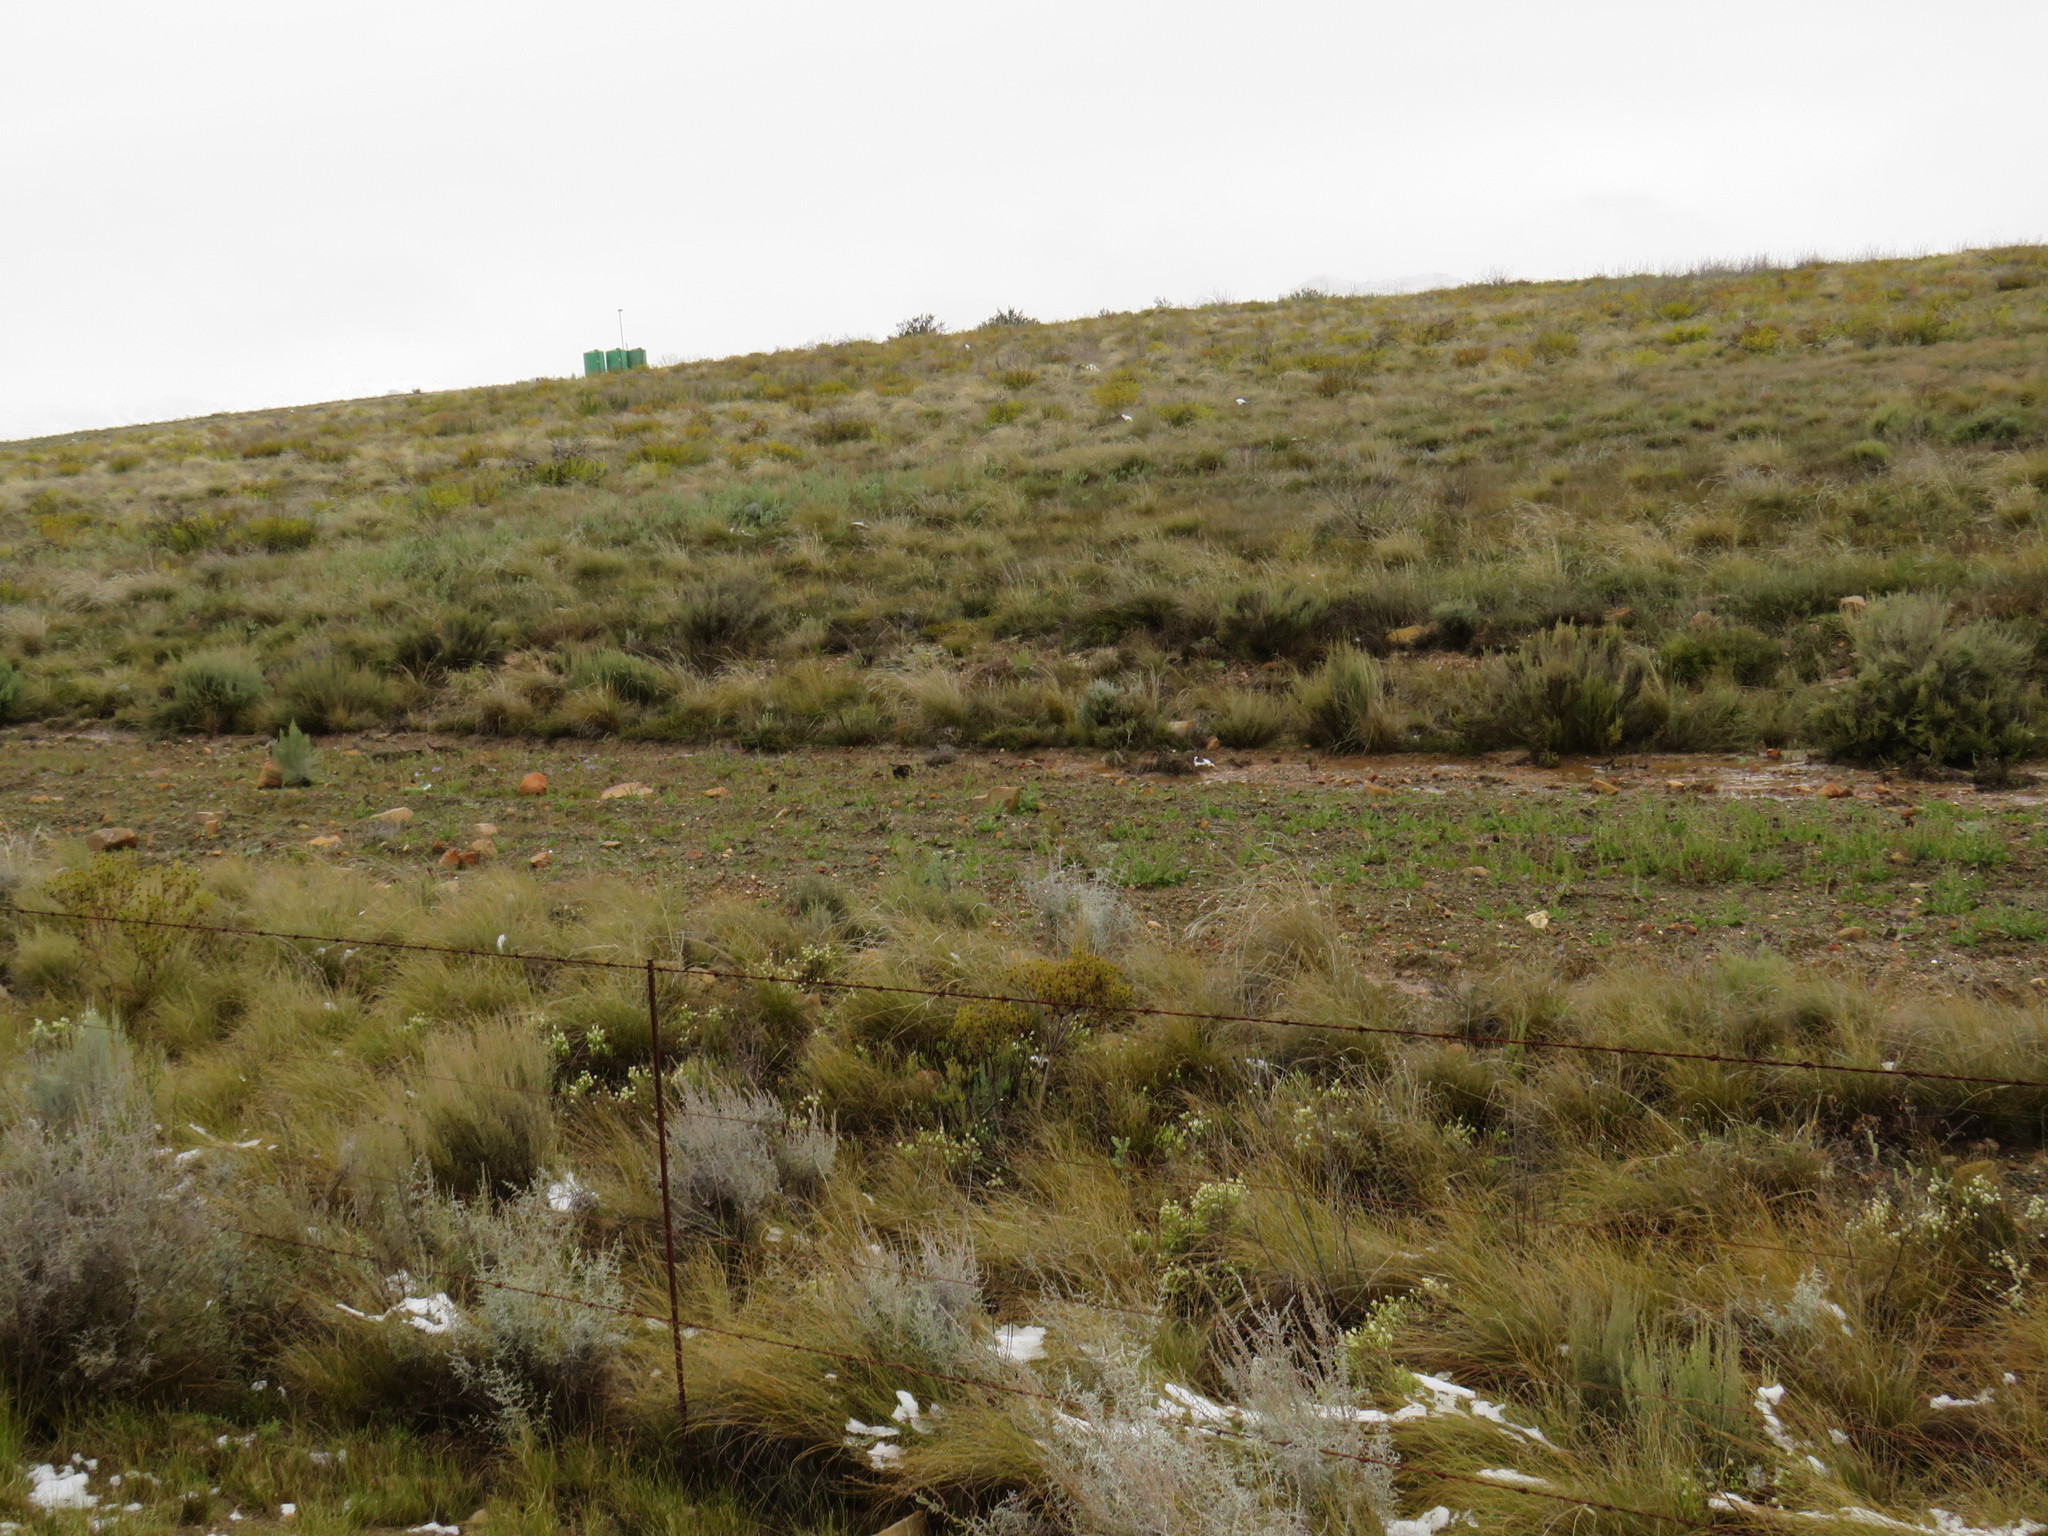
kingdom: Plantae
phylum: Tracheophyta
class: Magnoliopsida
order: Proteales
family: Proteaceae
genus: Leucadendron
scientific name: Leucadendron salignum
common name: Common sunshine conebush
